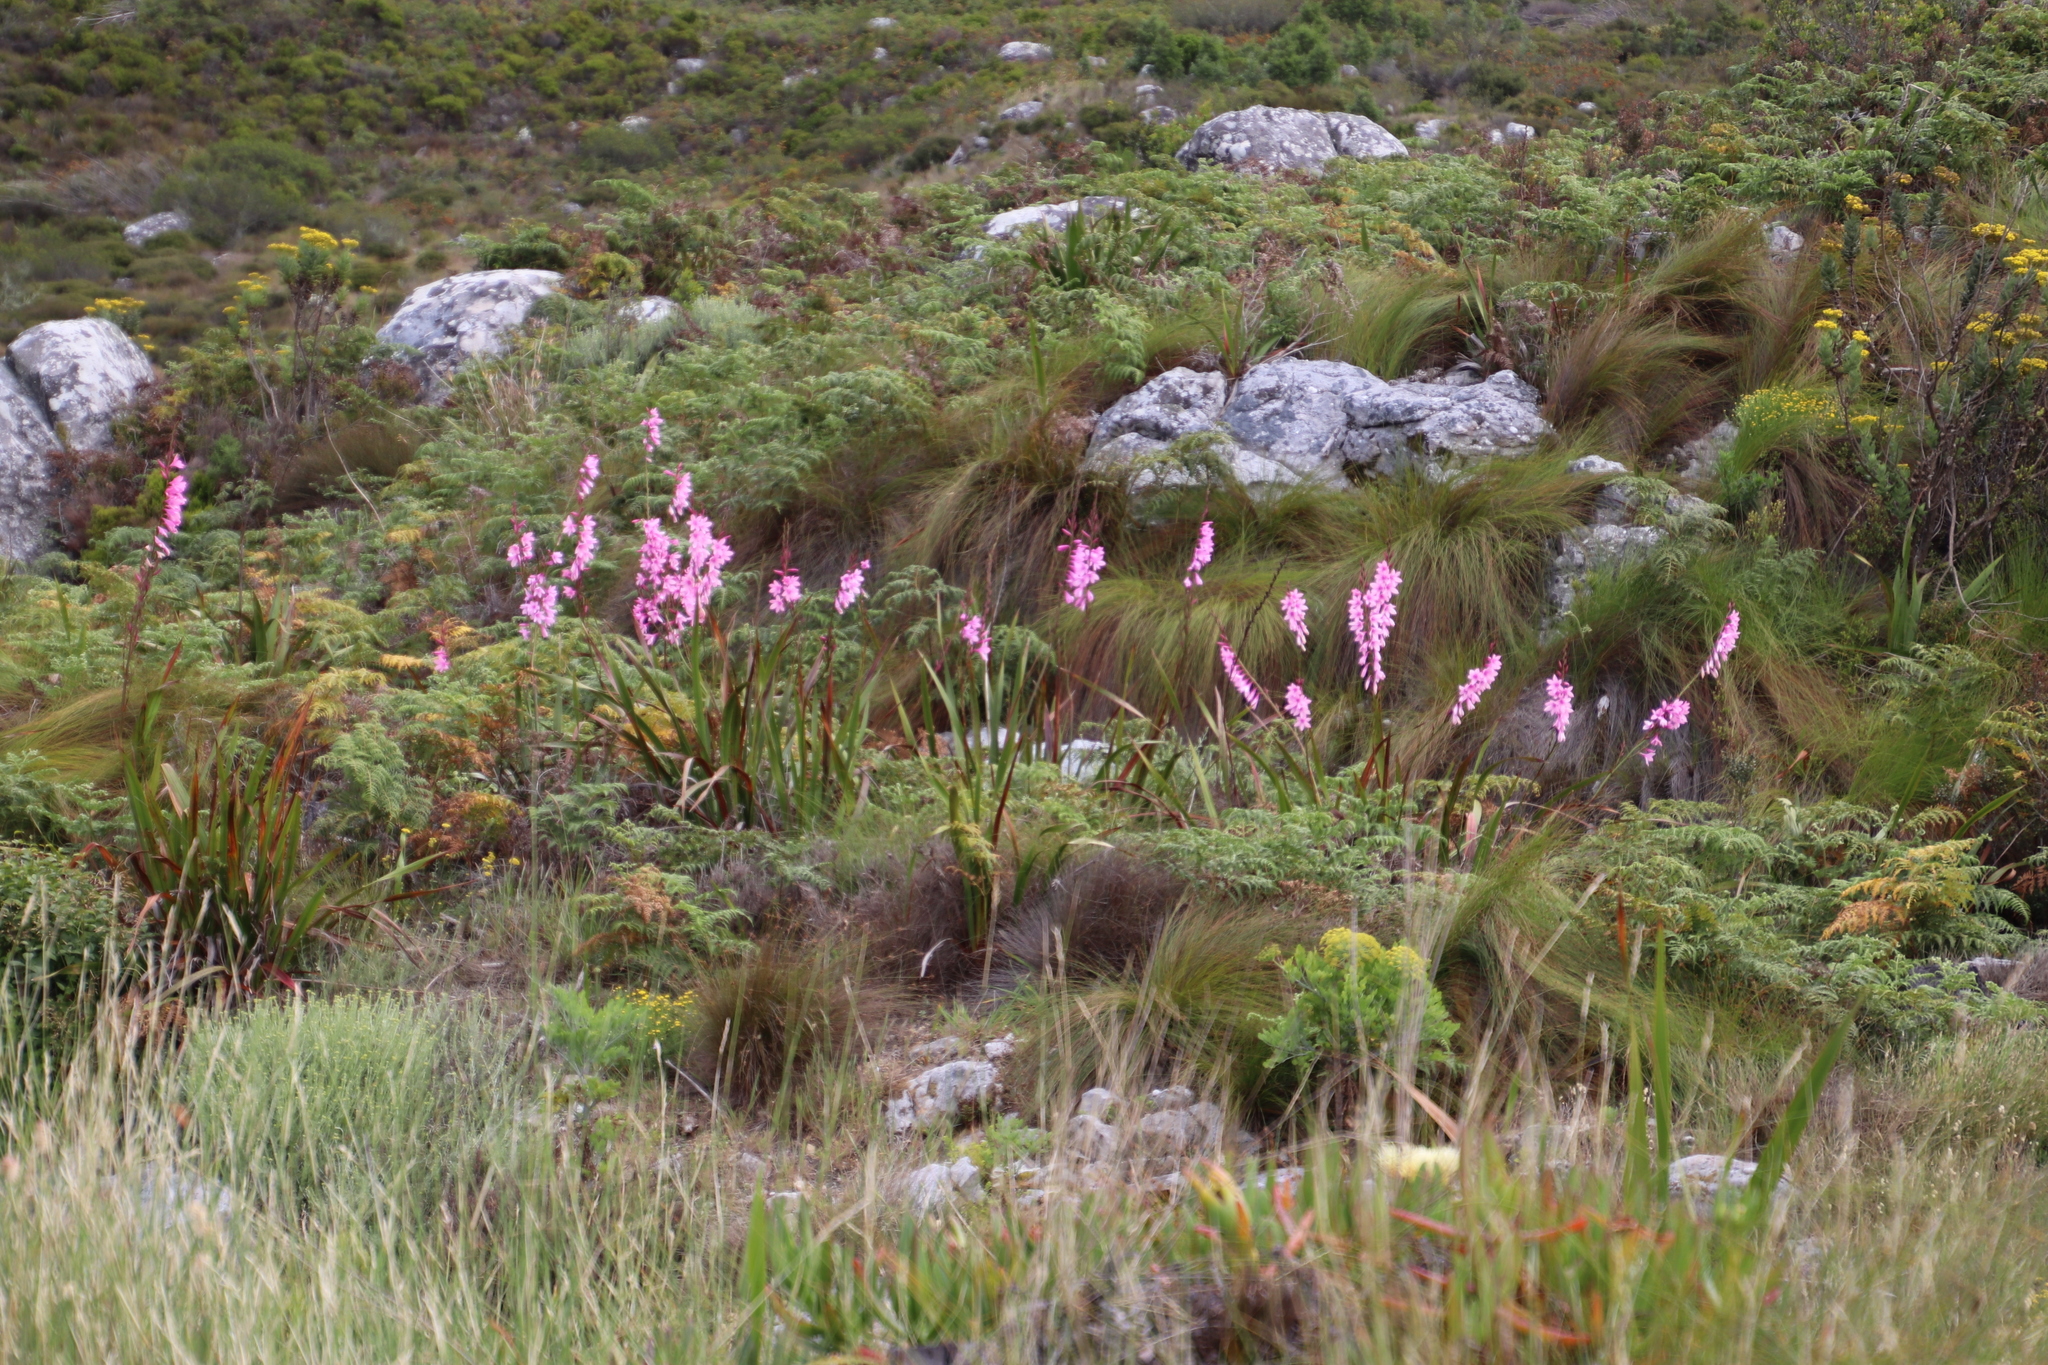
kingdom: Plantae
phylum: Tracheophyta
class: Liliopsida
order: Asparagales
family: Iridaceae
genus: Watsonia
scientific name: Watsonia borbonica
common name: Bugle-lily
